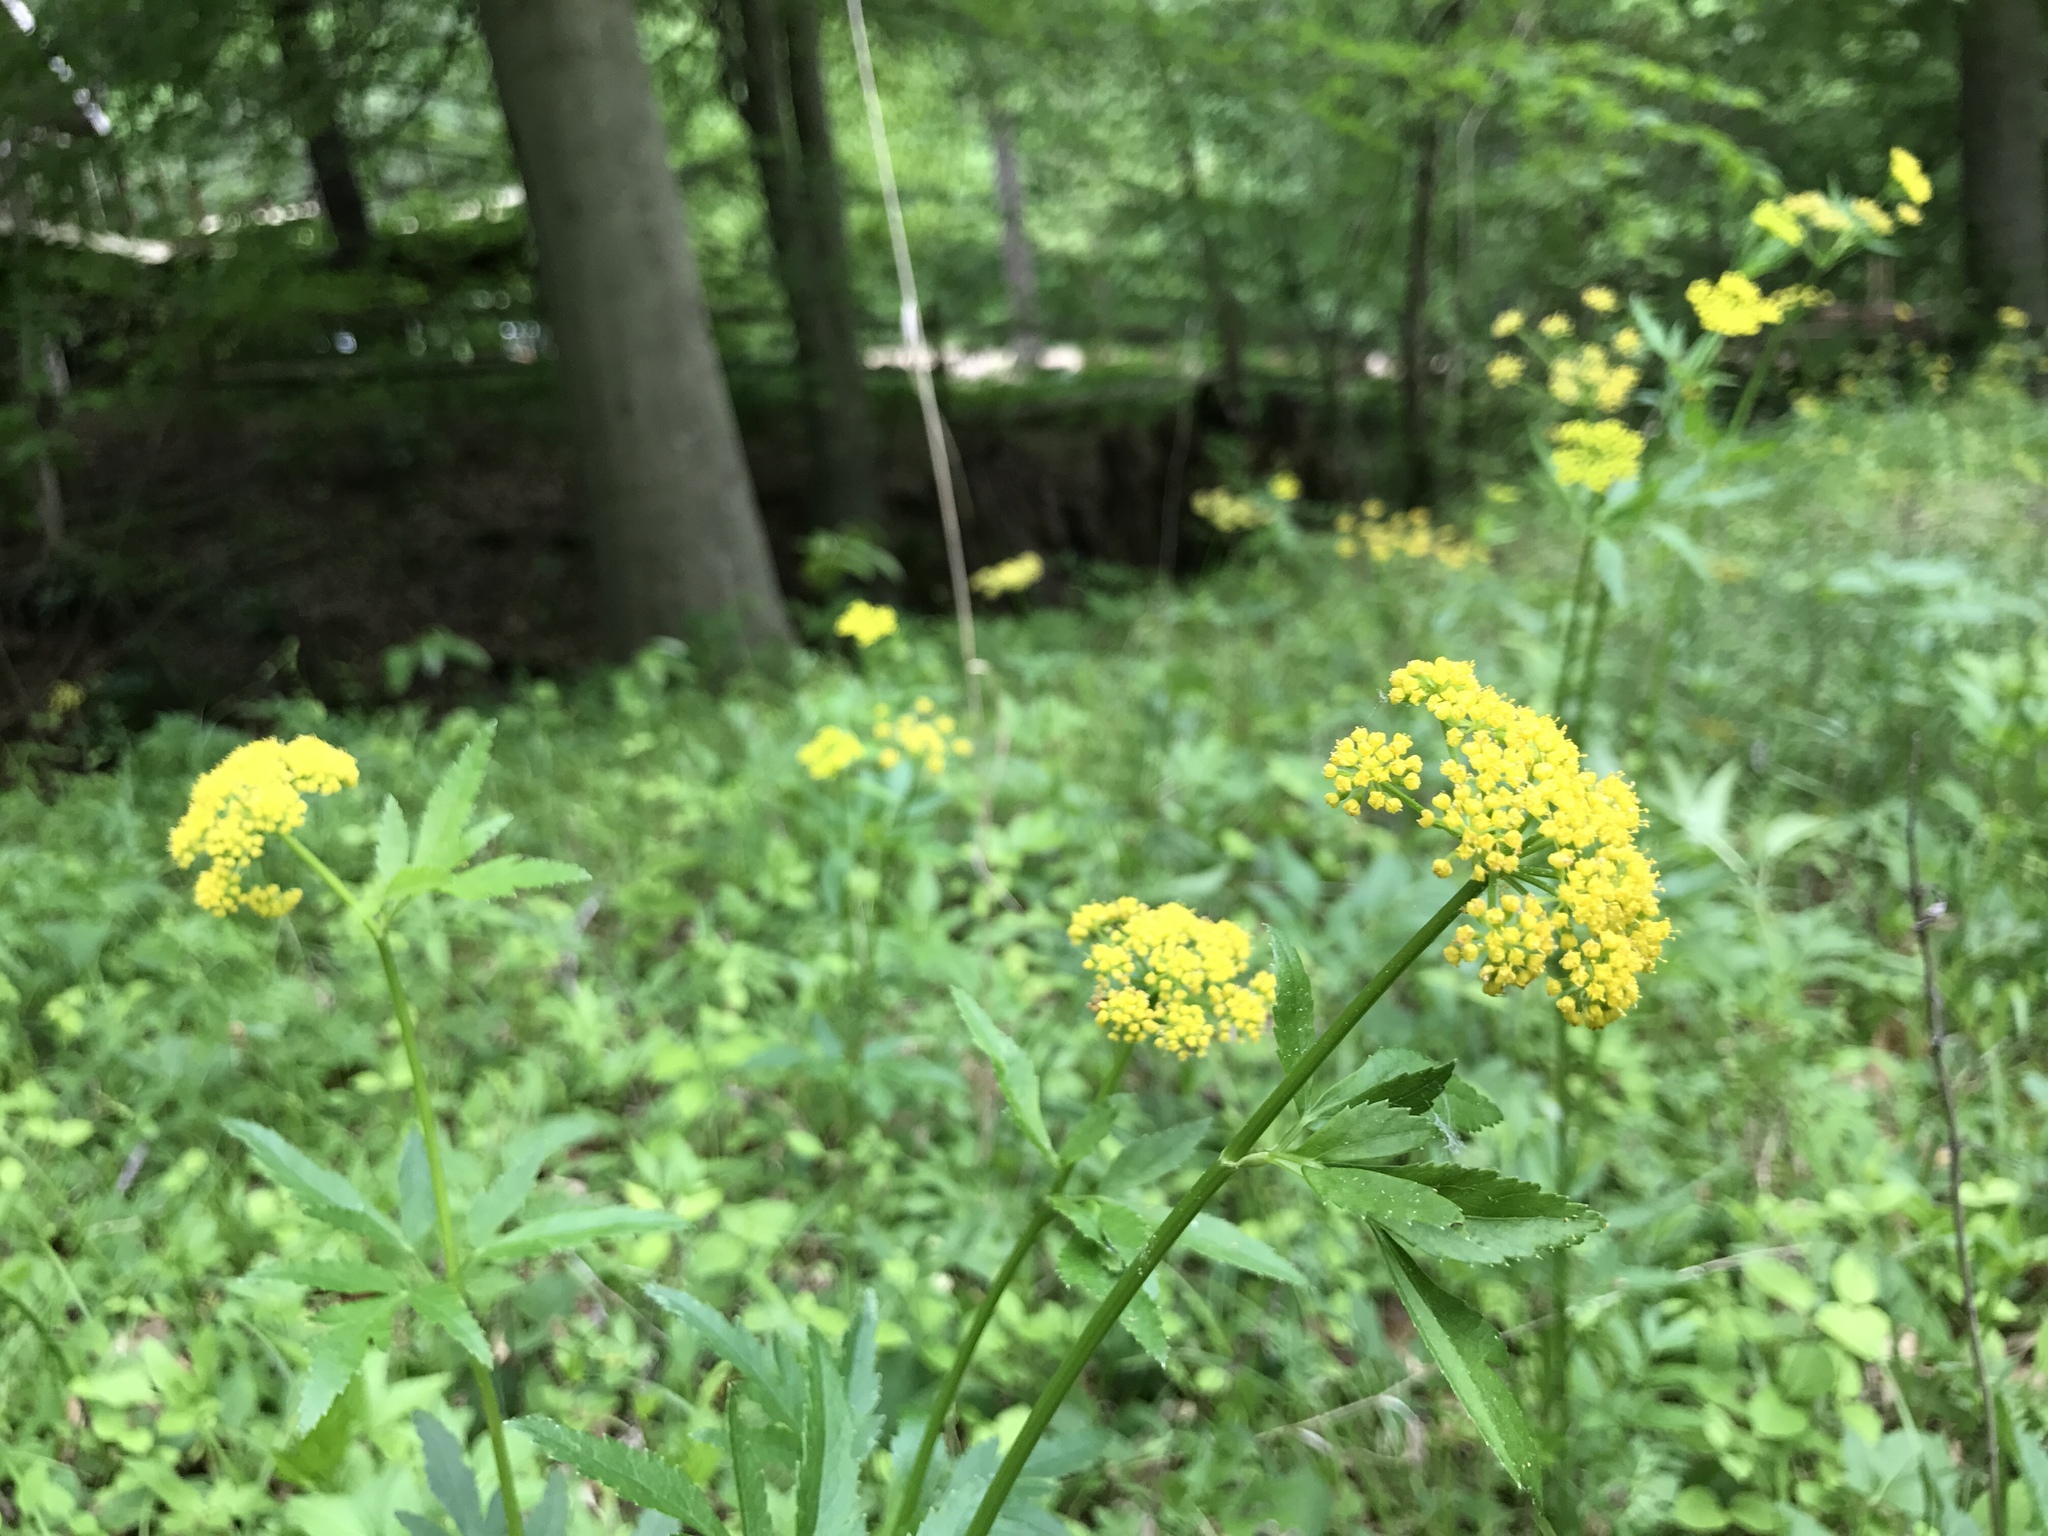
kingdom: Plantae
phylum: Tracheophyta
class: Magnoliopsida
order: Apiales
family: Apiaceae
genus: Zizia
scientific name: Zizia aurea
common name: Golden alexanders
